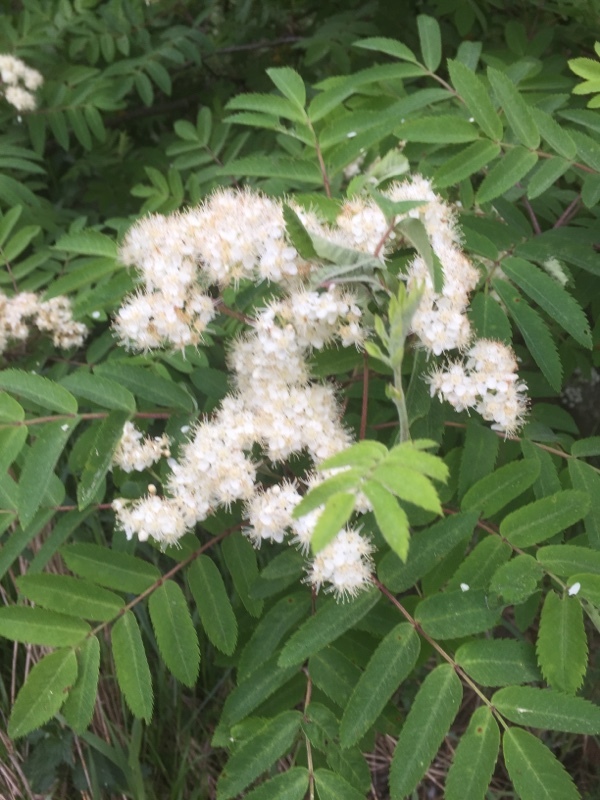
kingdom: Plantae
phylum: Tracheophyta
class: Magnoliopsida
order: Rosales
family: Rosaceae
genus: Sorbus
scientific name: Sorbus aucuparia
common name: Rowan
